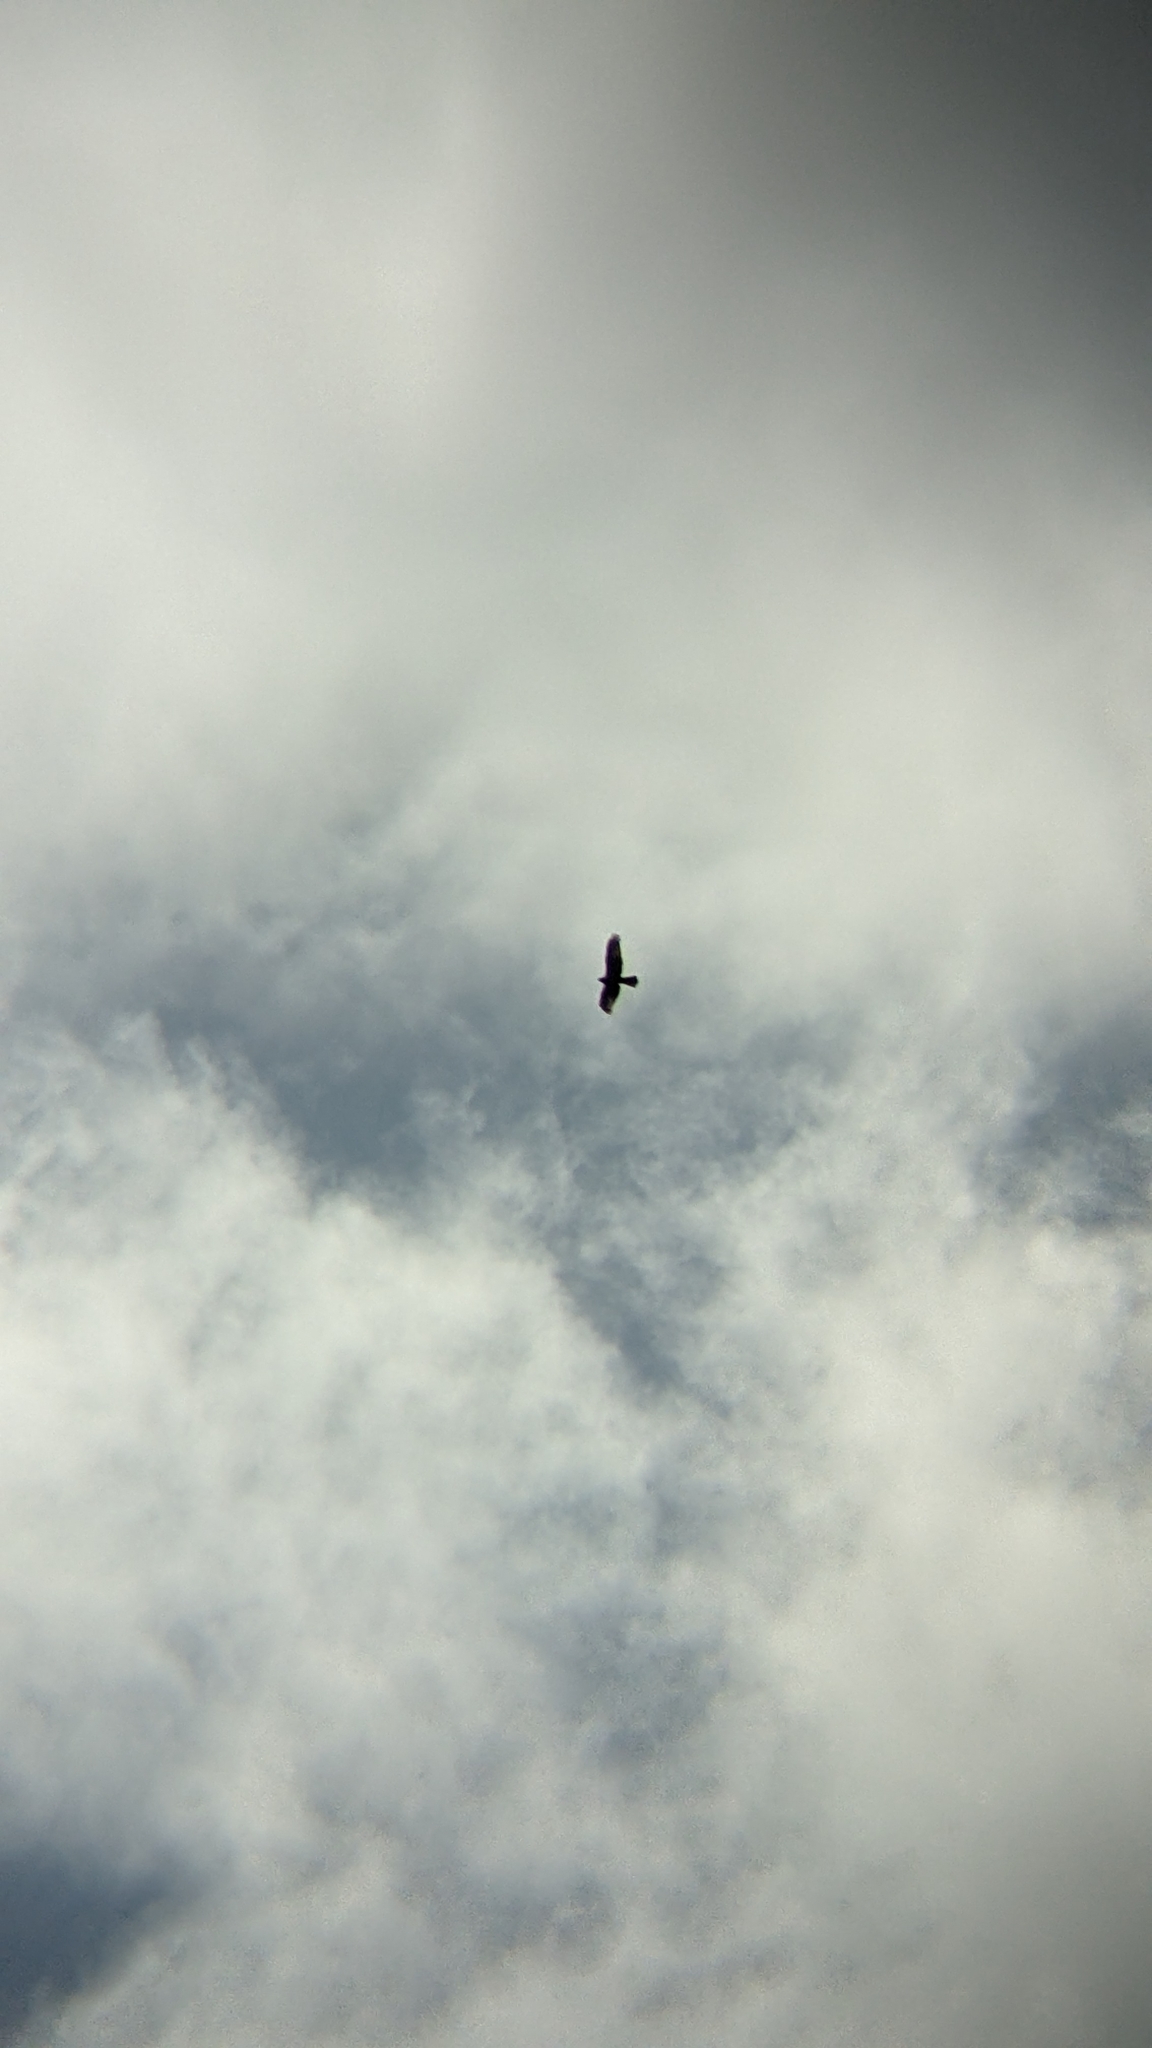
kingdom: Animalia
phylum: Chordata
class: Aves
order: Accipitriformes
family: Accipitridae
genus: Circus
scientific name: Circus approximans
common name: Swamp harrier
